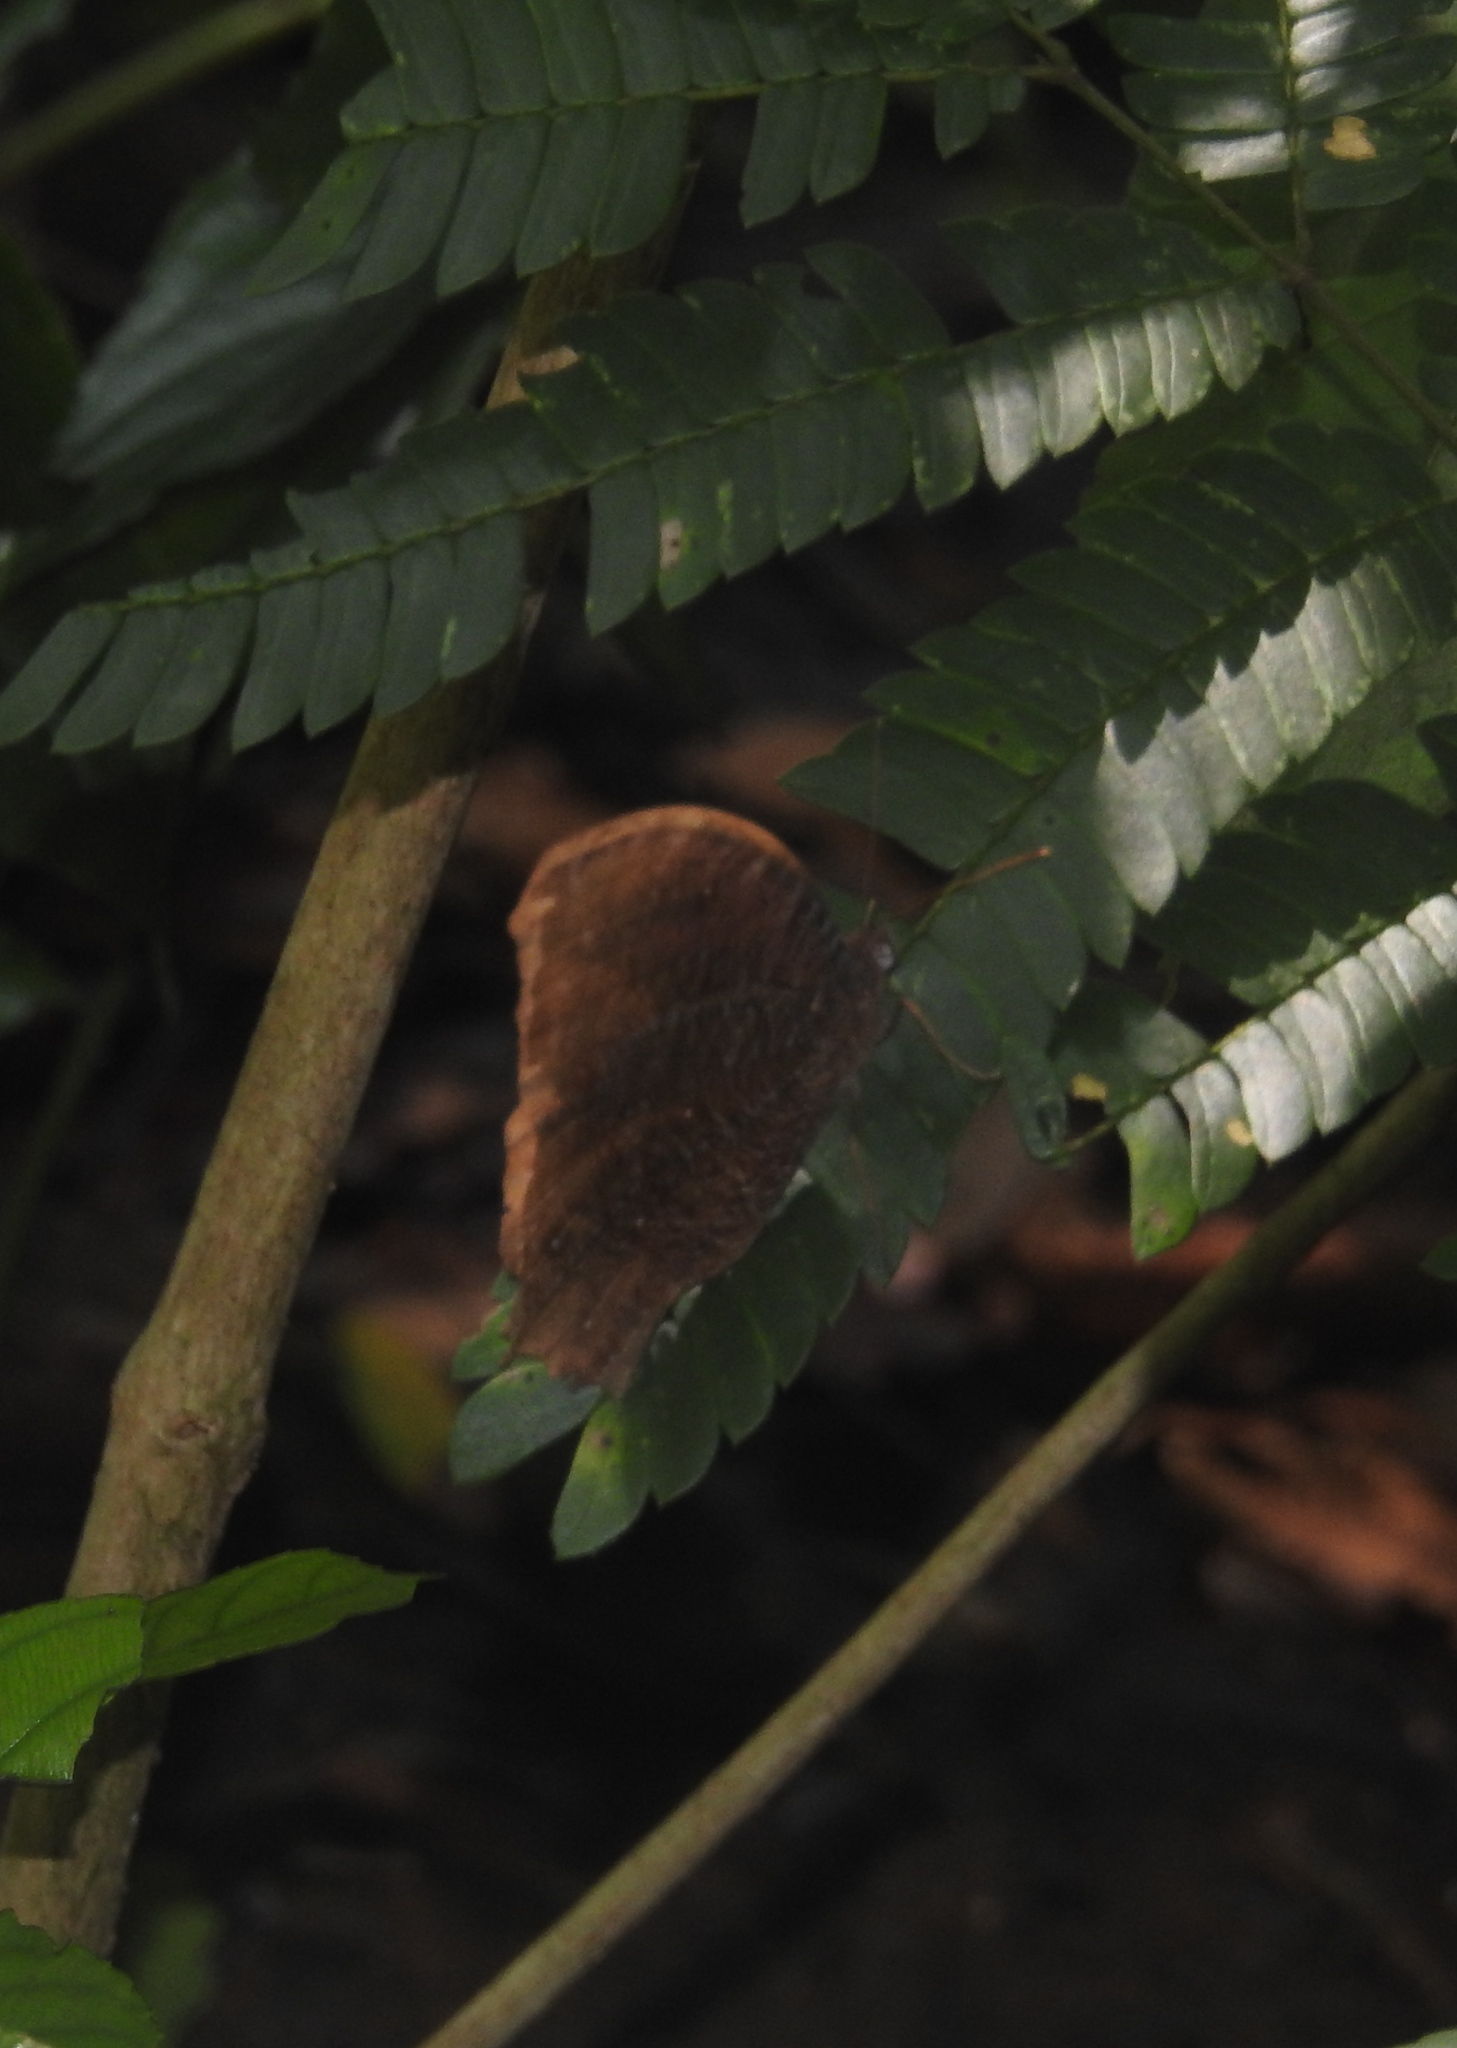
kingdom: Animalia
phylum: Arthropoda
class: Insecta
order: Lepidoptera
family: Nymphalidae
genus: Melanitis
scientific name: Melanitis phedima
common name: Dark evening brown
